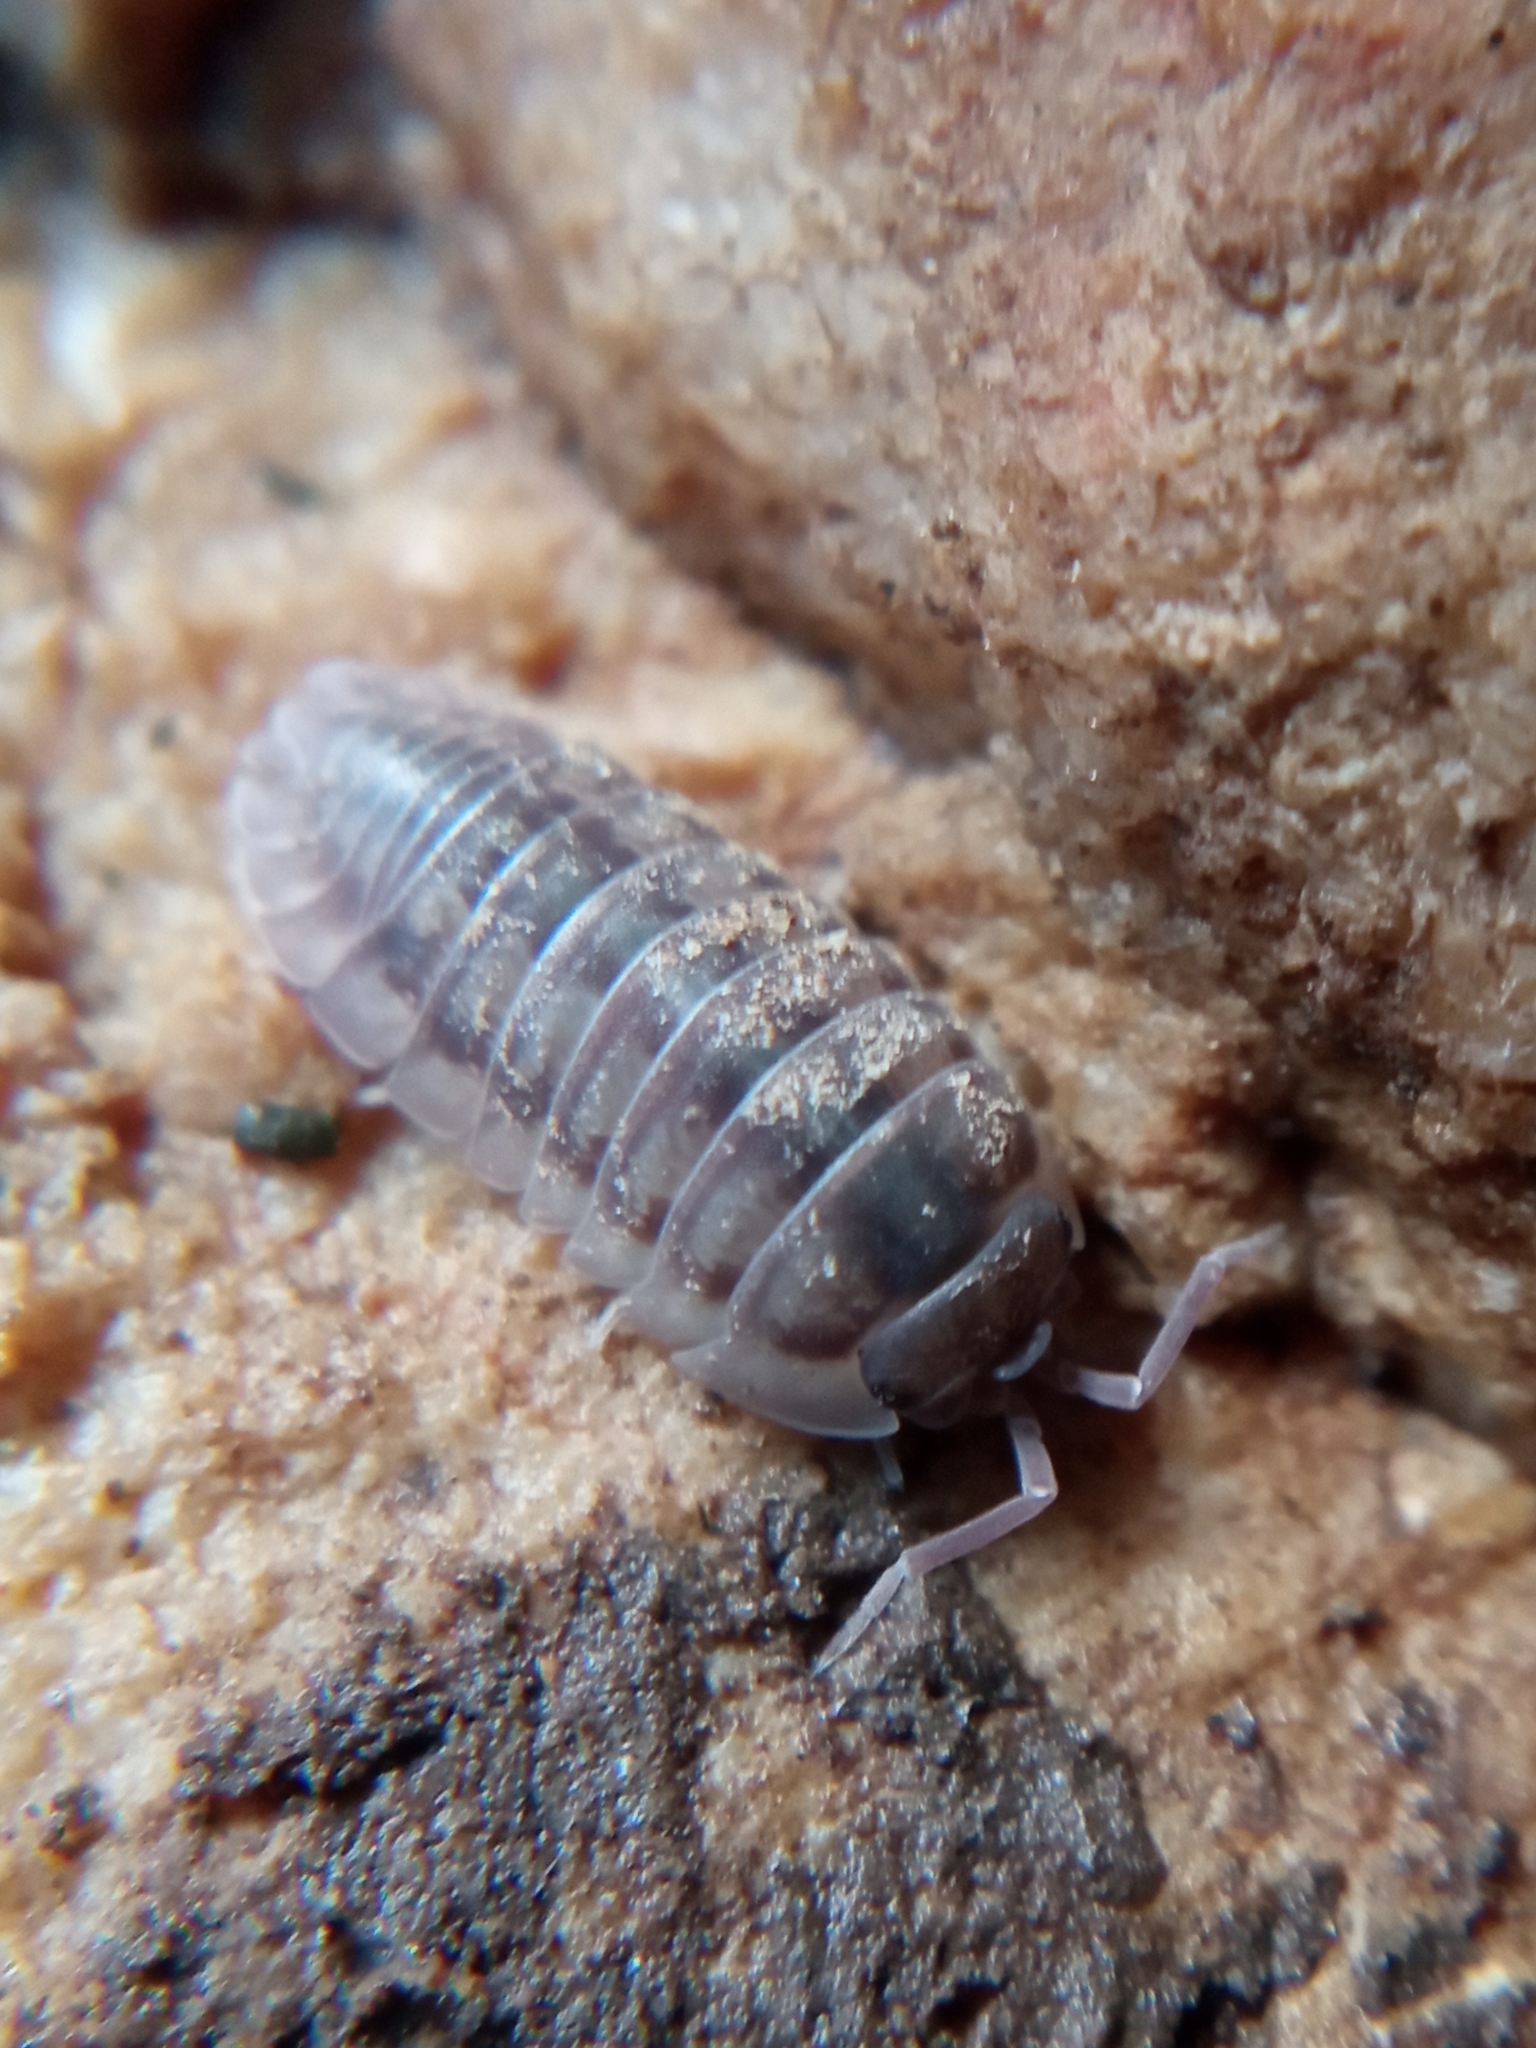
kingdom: Animalia
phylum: Arthropoda
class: Malacostraca
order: Isopoda
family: Armadillidiidae
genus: Armadillidium
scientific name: Armadillidium nasatum
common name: Isopod
